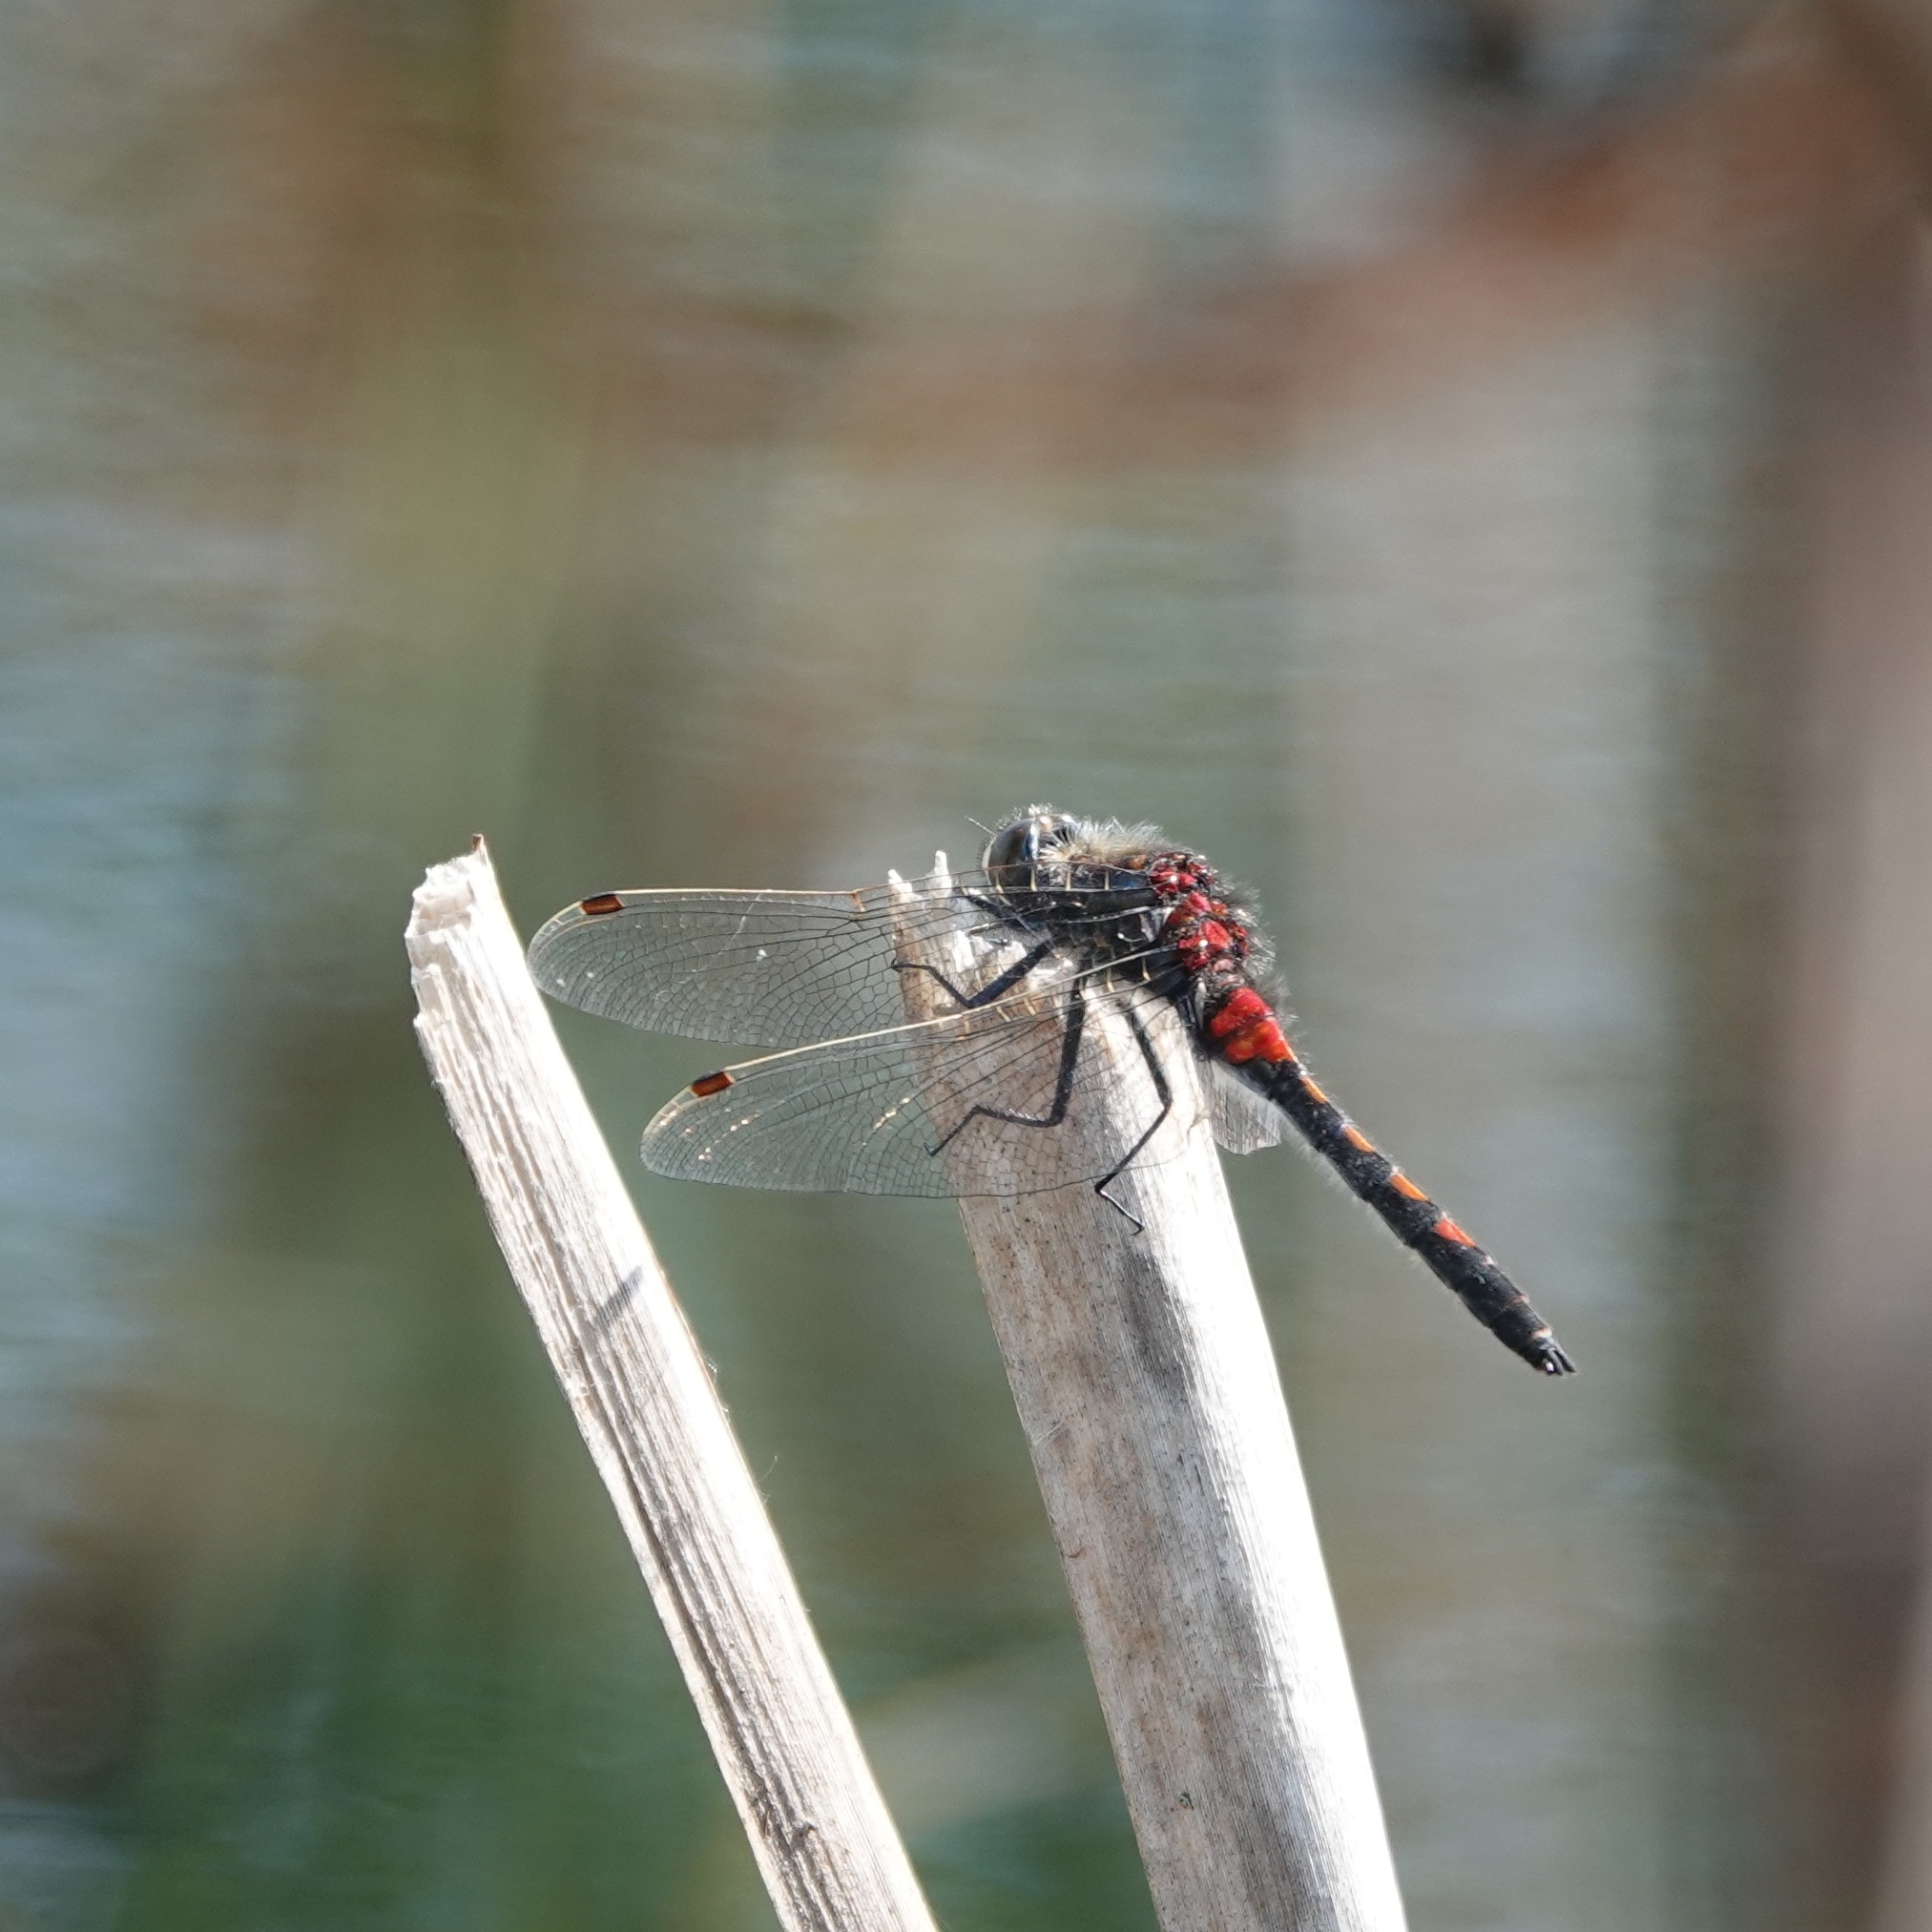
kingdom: Animalia
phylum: Arthropoda
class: Insecta
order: Odonata
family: Libellulidae
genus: Leucorrhinia
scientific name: Leucorrhinia rubicunda
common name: Ruby whiteface
